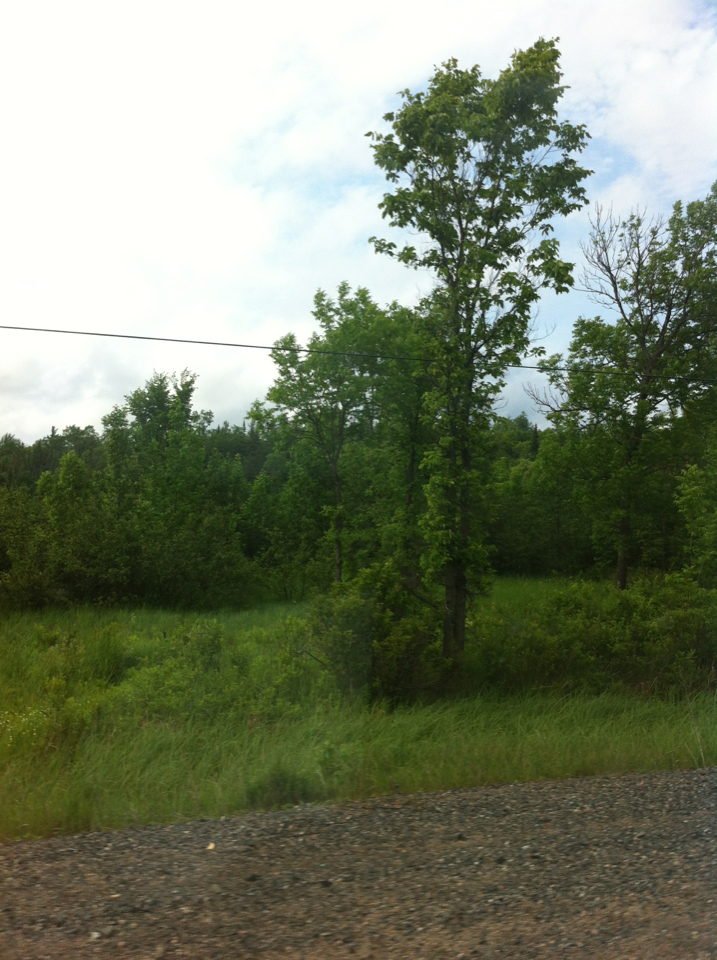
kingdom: Plantae
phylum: Tracheophyta
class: Magnoliopsida
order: Rosales
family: Ulmaceae
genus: Ulmus
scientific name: Ulmus americana
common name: American elm
